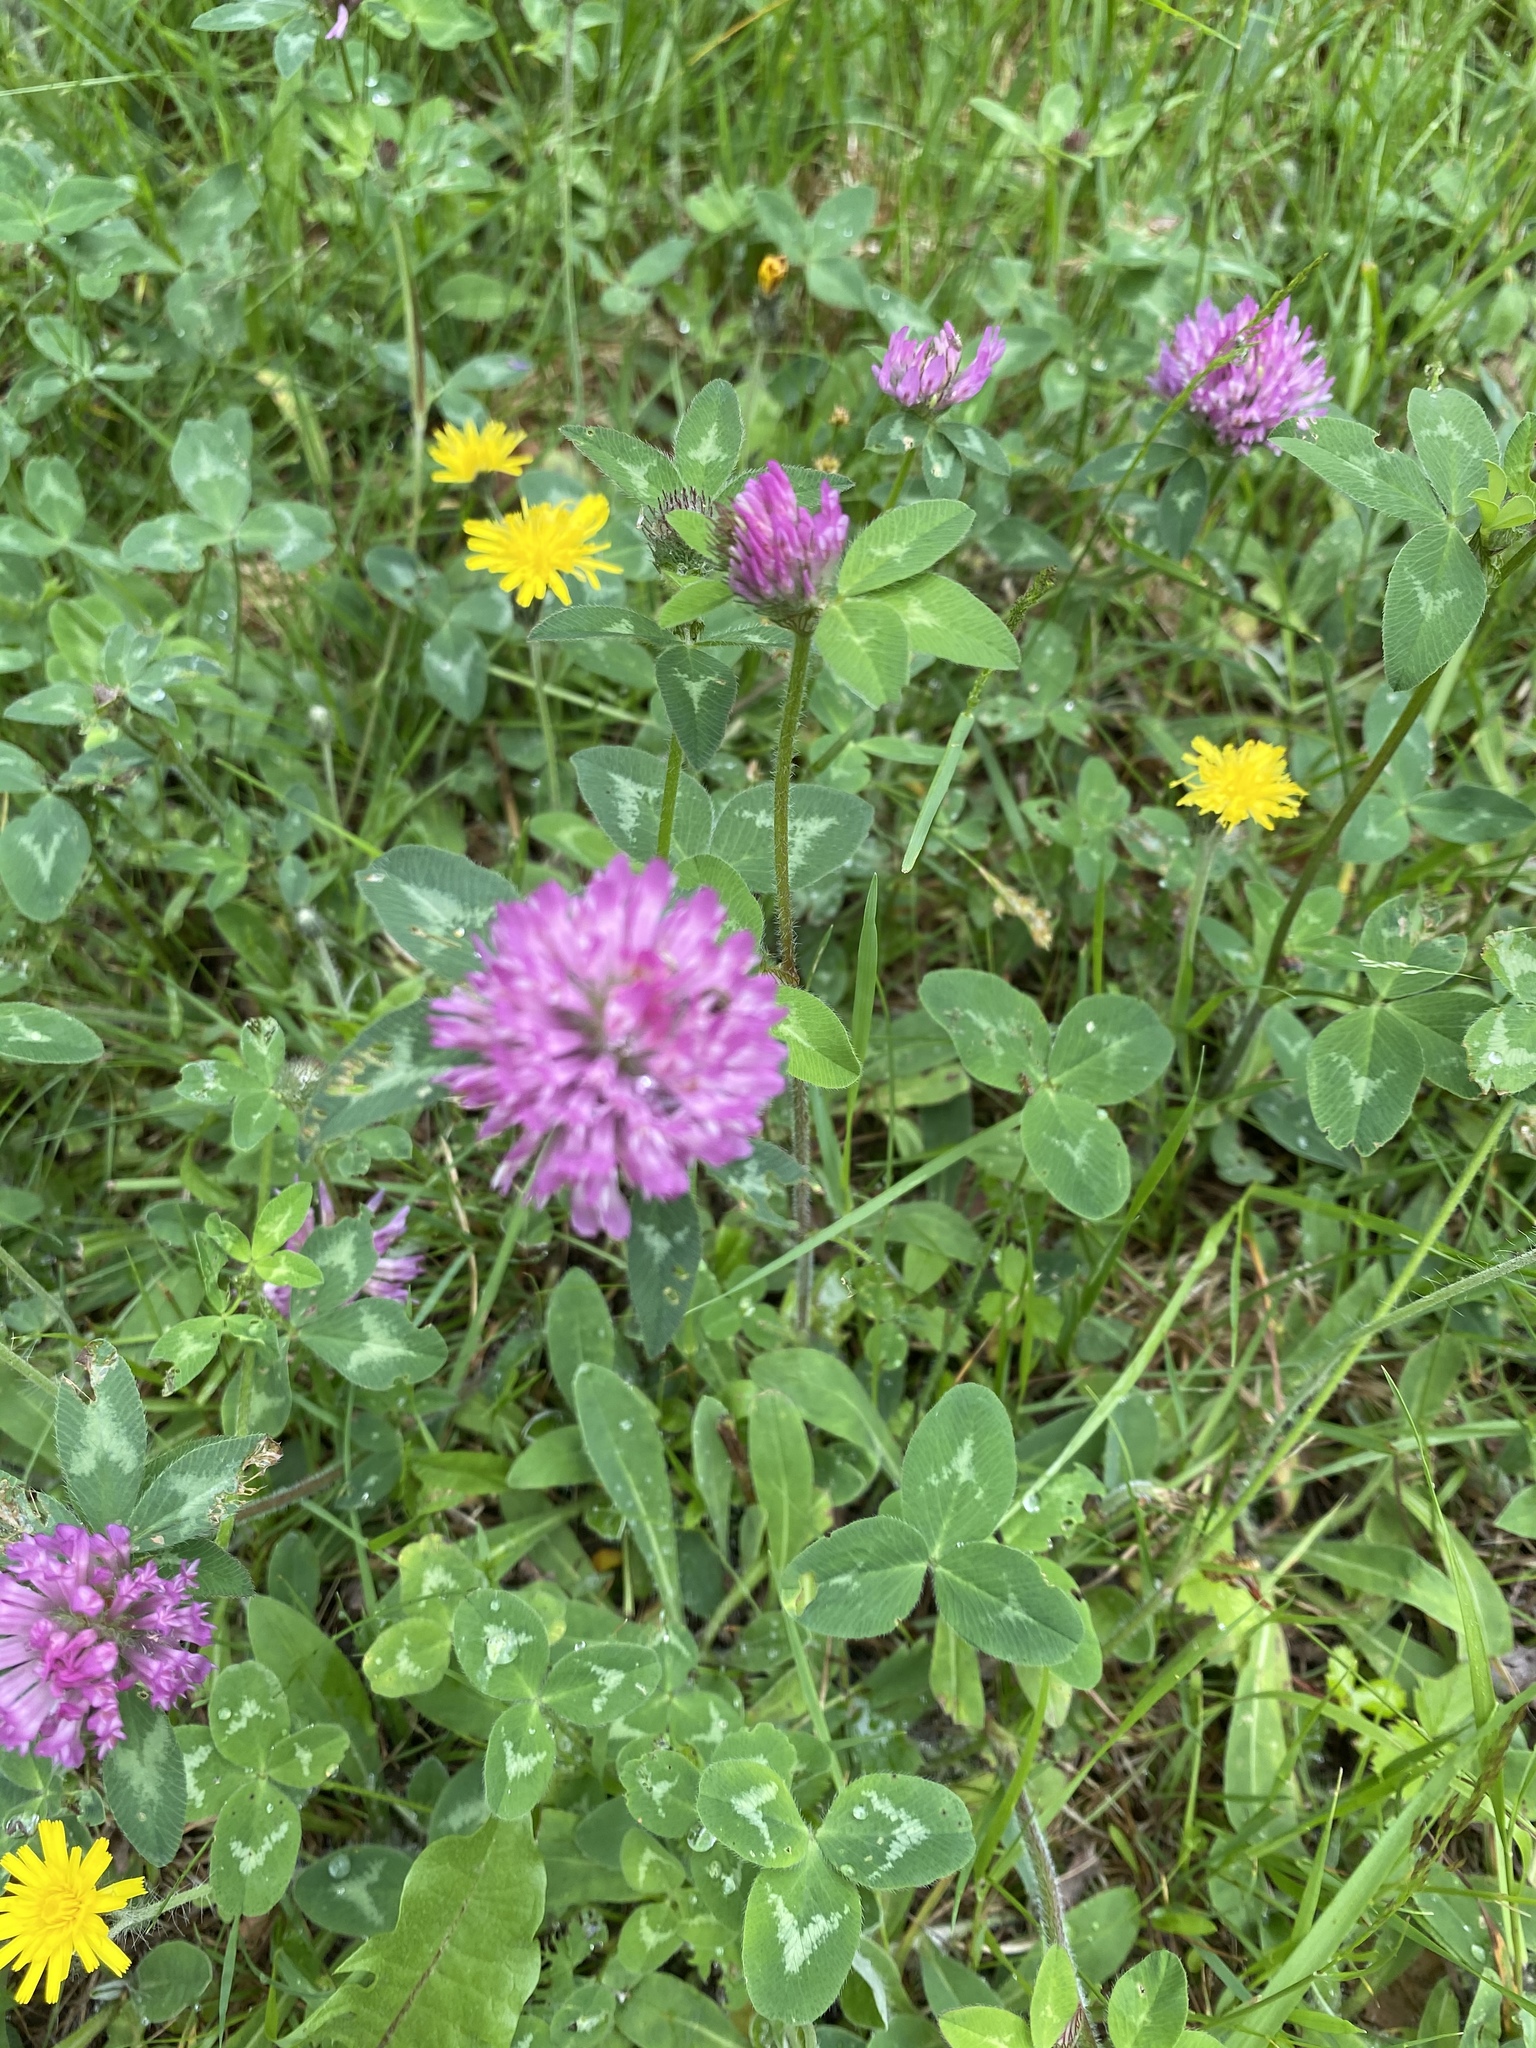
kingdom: Plantae
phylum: Tracheophyta
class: Magnoliopsida
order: Fabales
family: Fabaceae
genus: Trifolium
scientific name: Trifolium pratense
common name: Red clover
